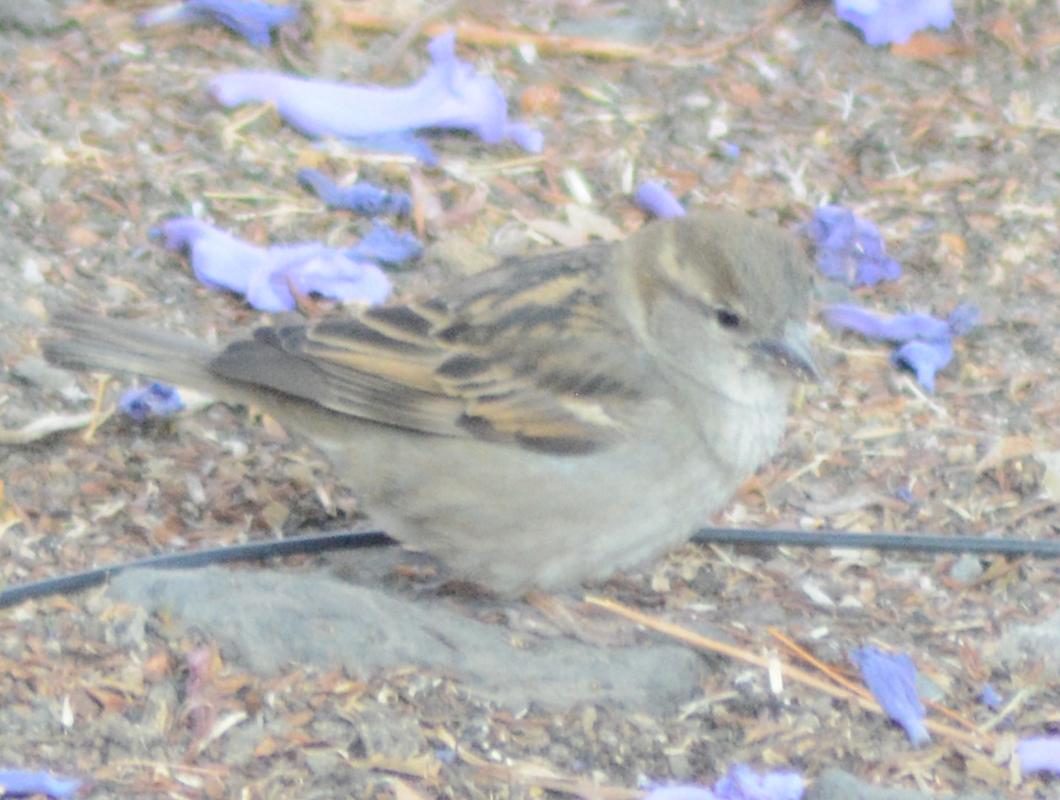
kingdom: Animalia
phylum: Chordata
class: Aves
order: Passeriformes
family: Passeridae
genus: Passer
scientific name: Passer domesticus
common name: House sparrow
